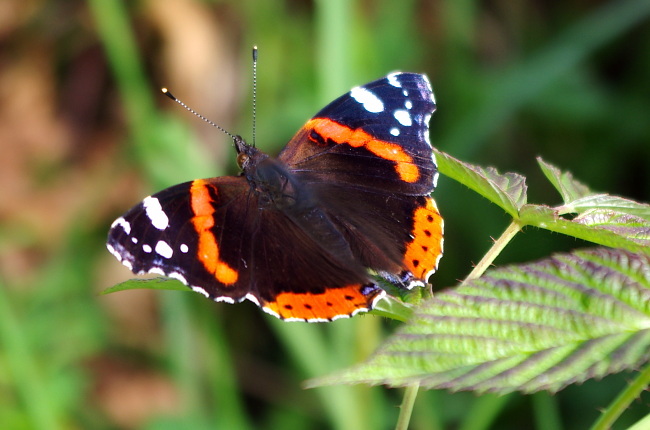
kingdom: Animalia
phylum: Arthropoda
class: Insecta
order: Lepidoptera
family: Nymphalidae
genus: Vanessa
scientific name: Vanessa atalanta
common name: Red admiral
